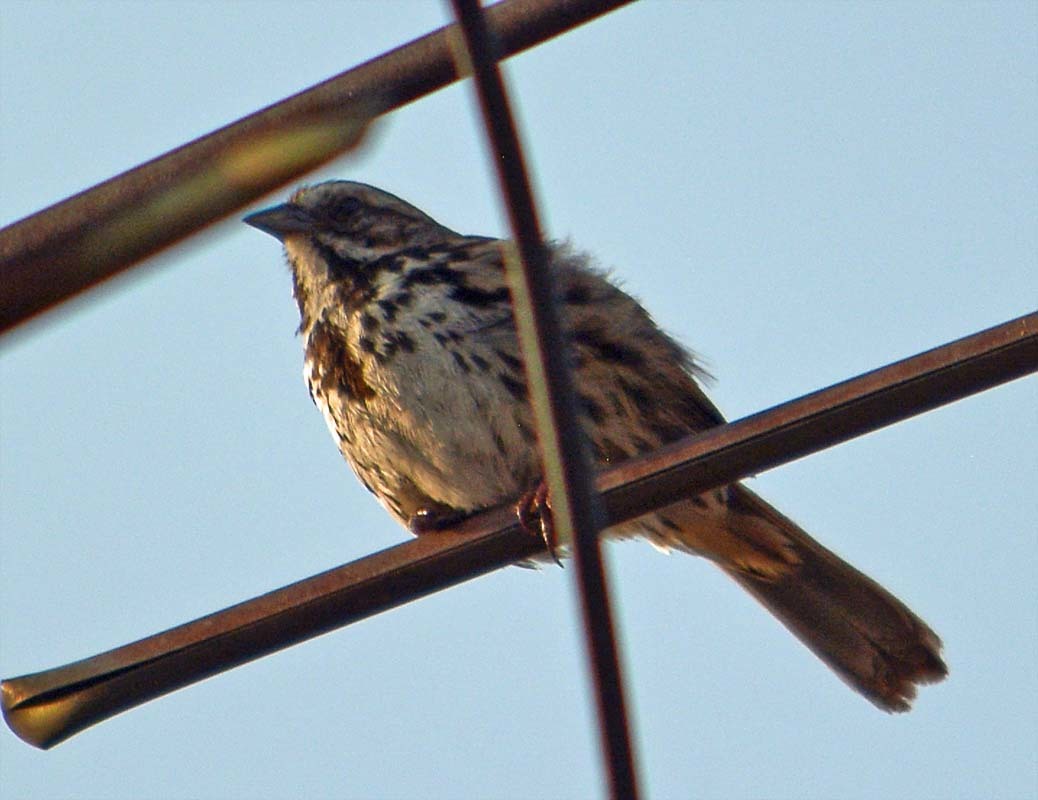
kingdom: Animalia
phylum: Chordata
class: Aves
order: Passeriformes
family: Passerellidae
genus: Melospiza
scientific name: Melospiza melodia
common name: Song sparrow
